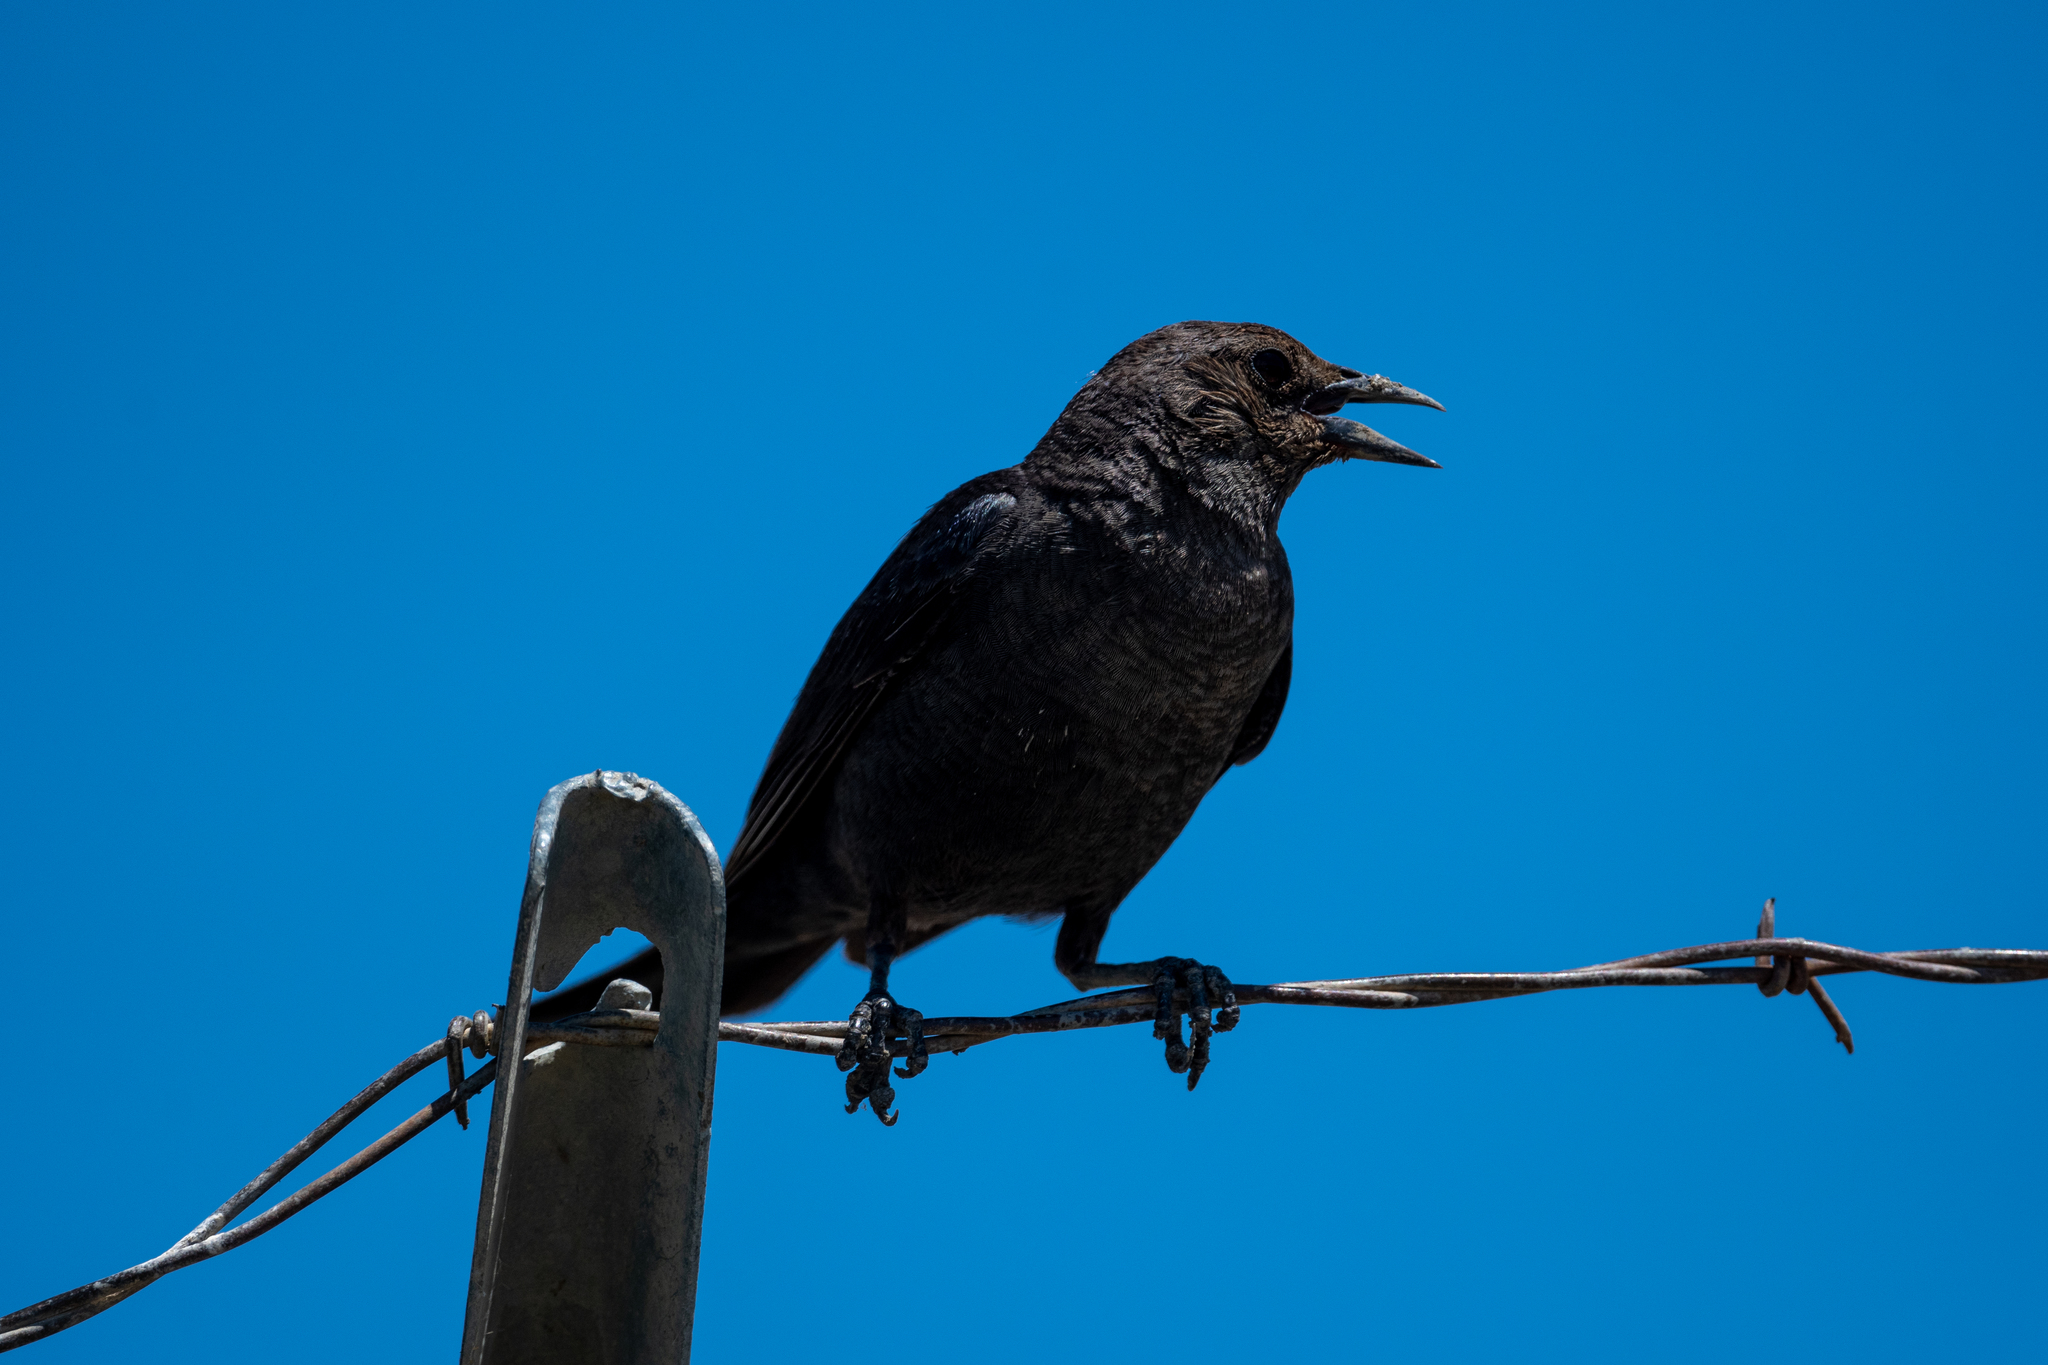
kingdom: Animalia
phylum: Chordata
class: Aves
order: Passeriformes
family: Icteridae
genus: Euphagus
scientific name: Euphagus cyanocephalus
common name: Brewer's blackbird
